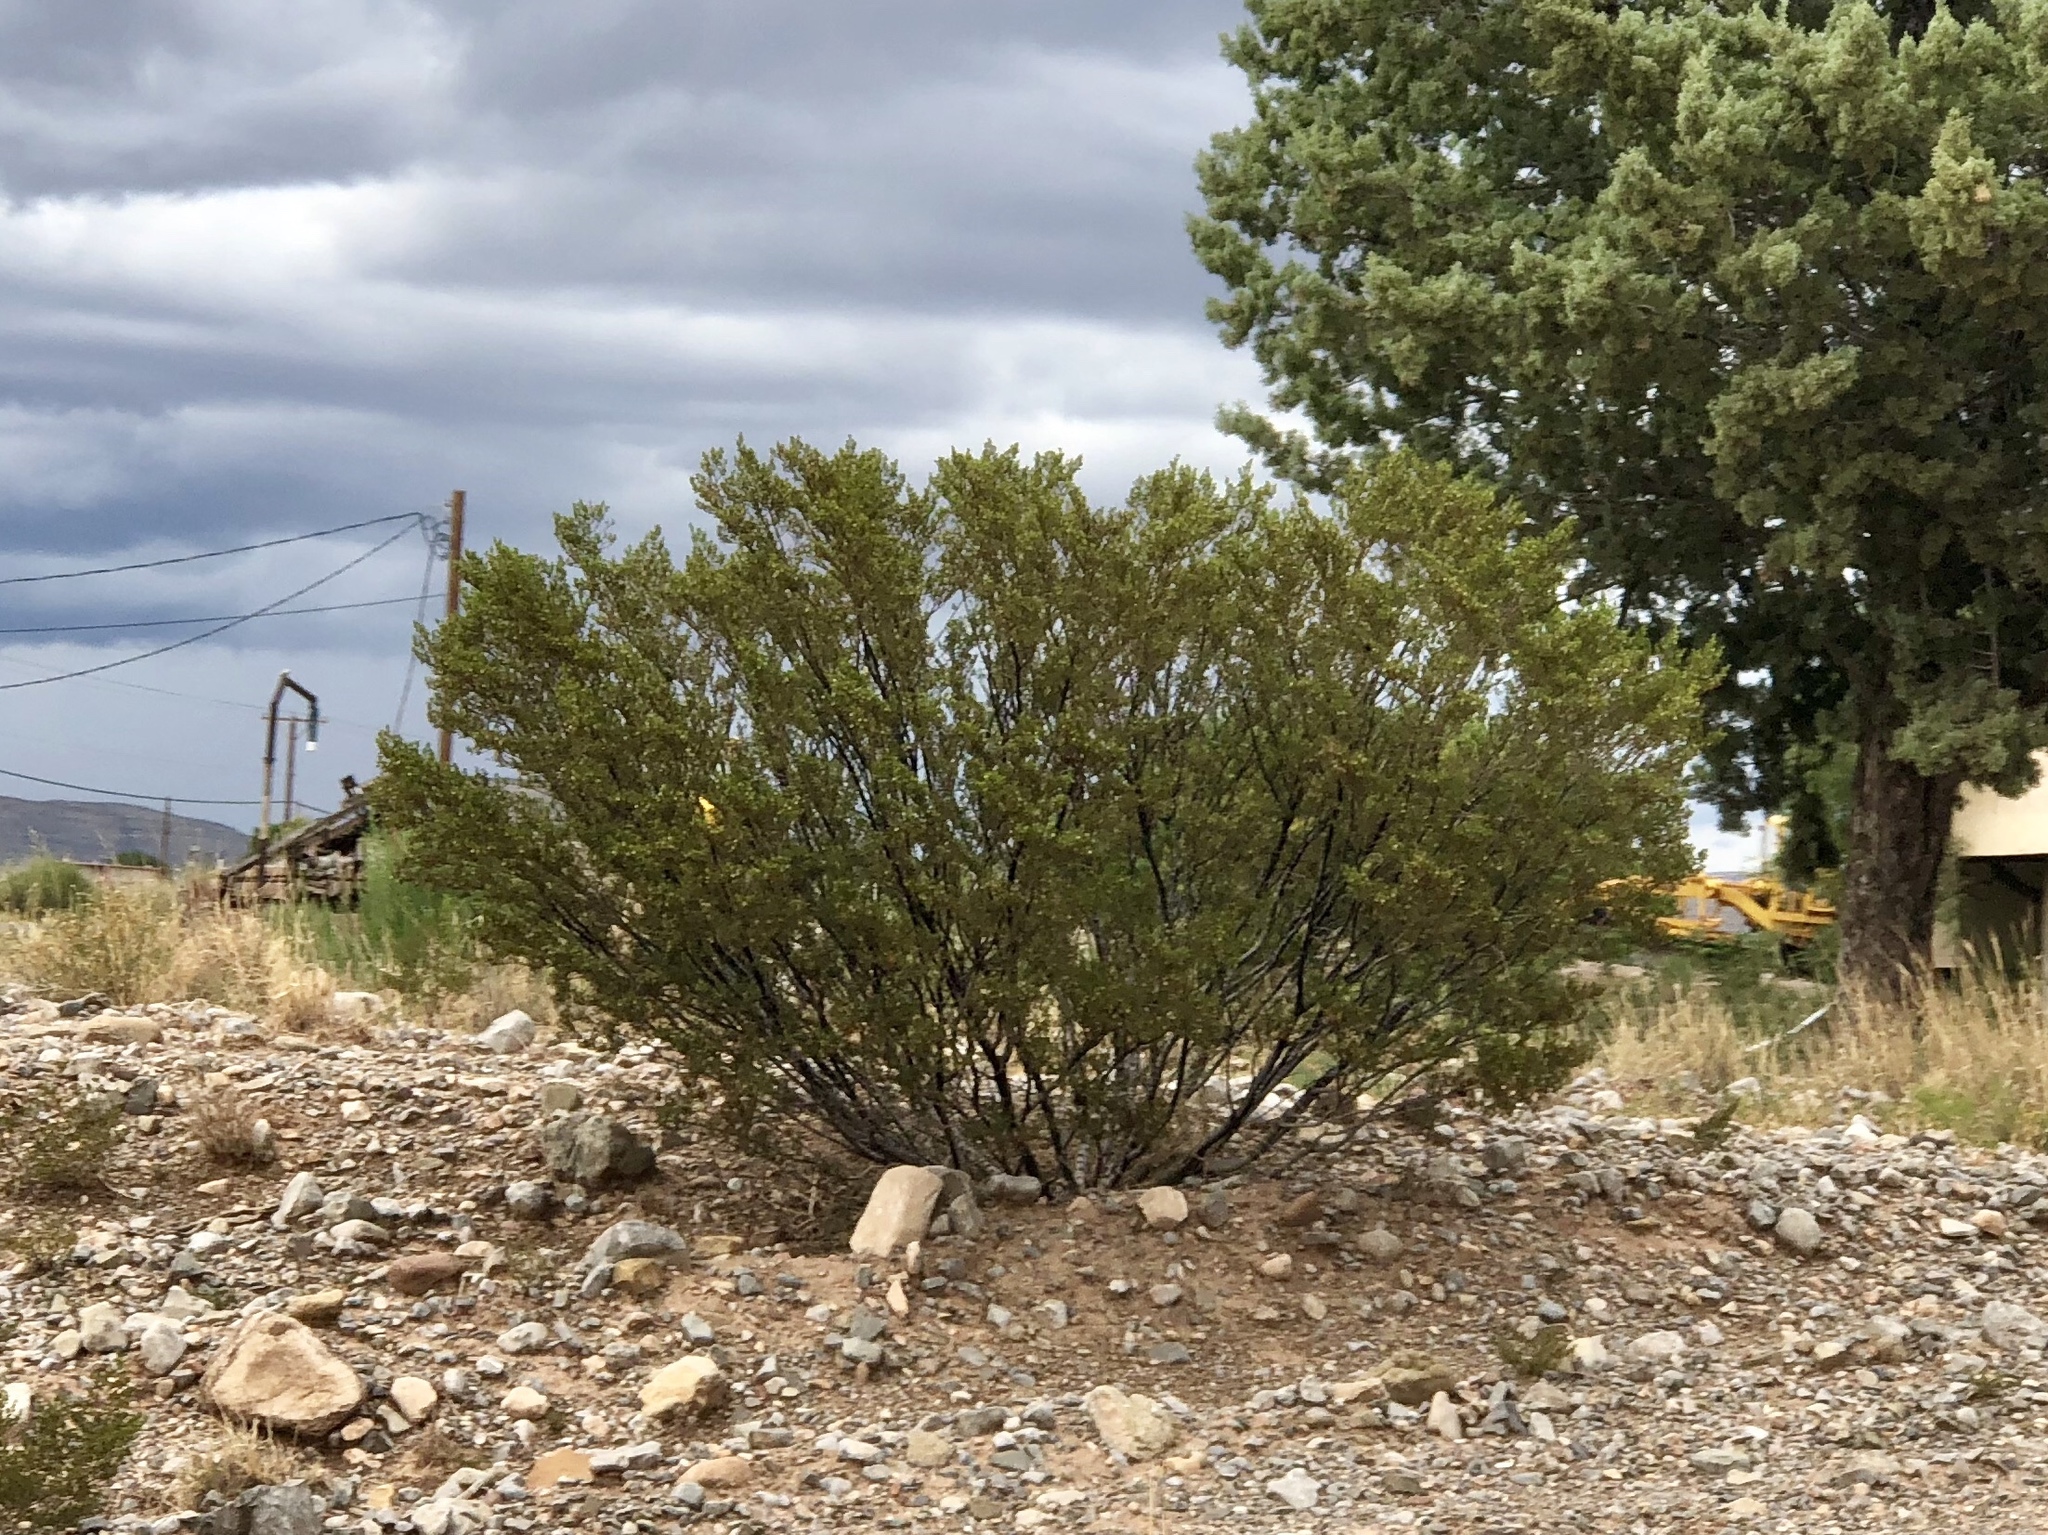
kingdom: Plantae
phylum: Tracheophyta
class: Magnoliopsida
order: Zygophyllales
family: Zygophyllaceae
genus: Larrea
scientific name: Larrea tridentata
